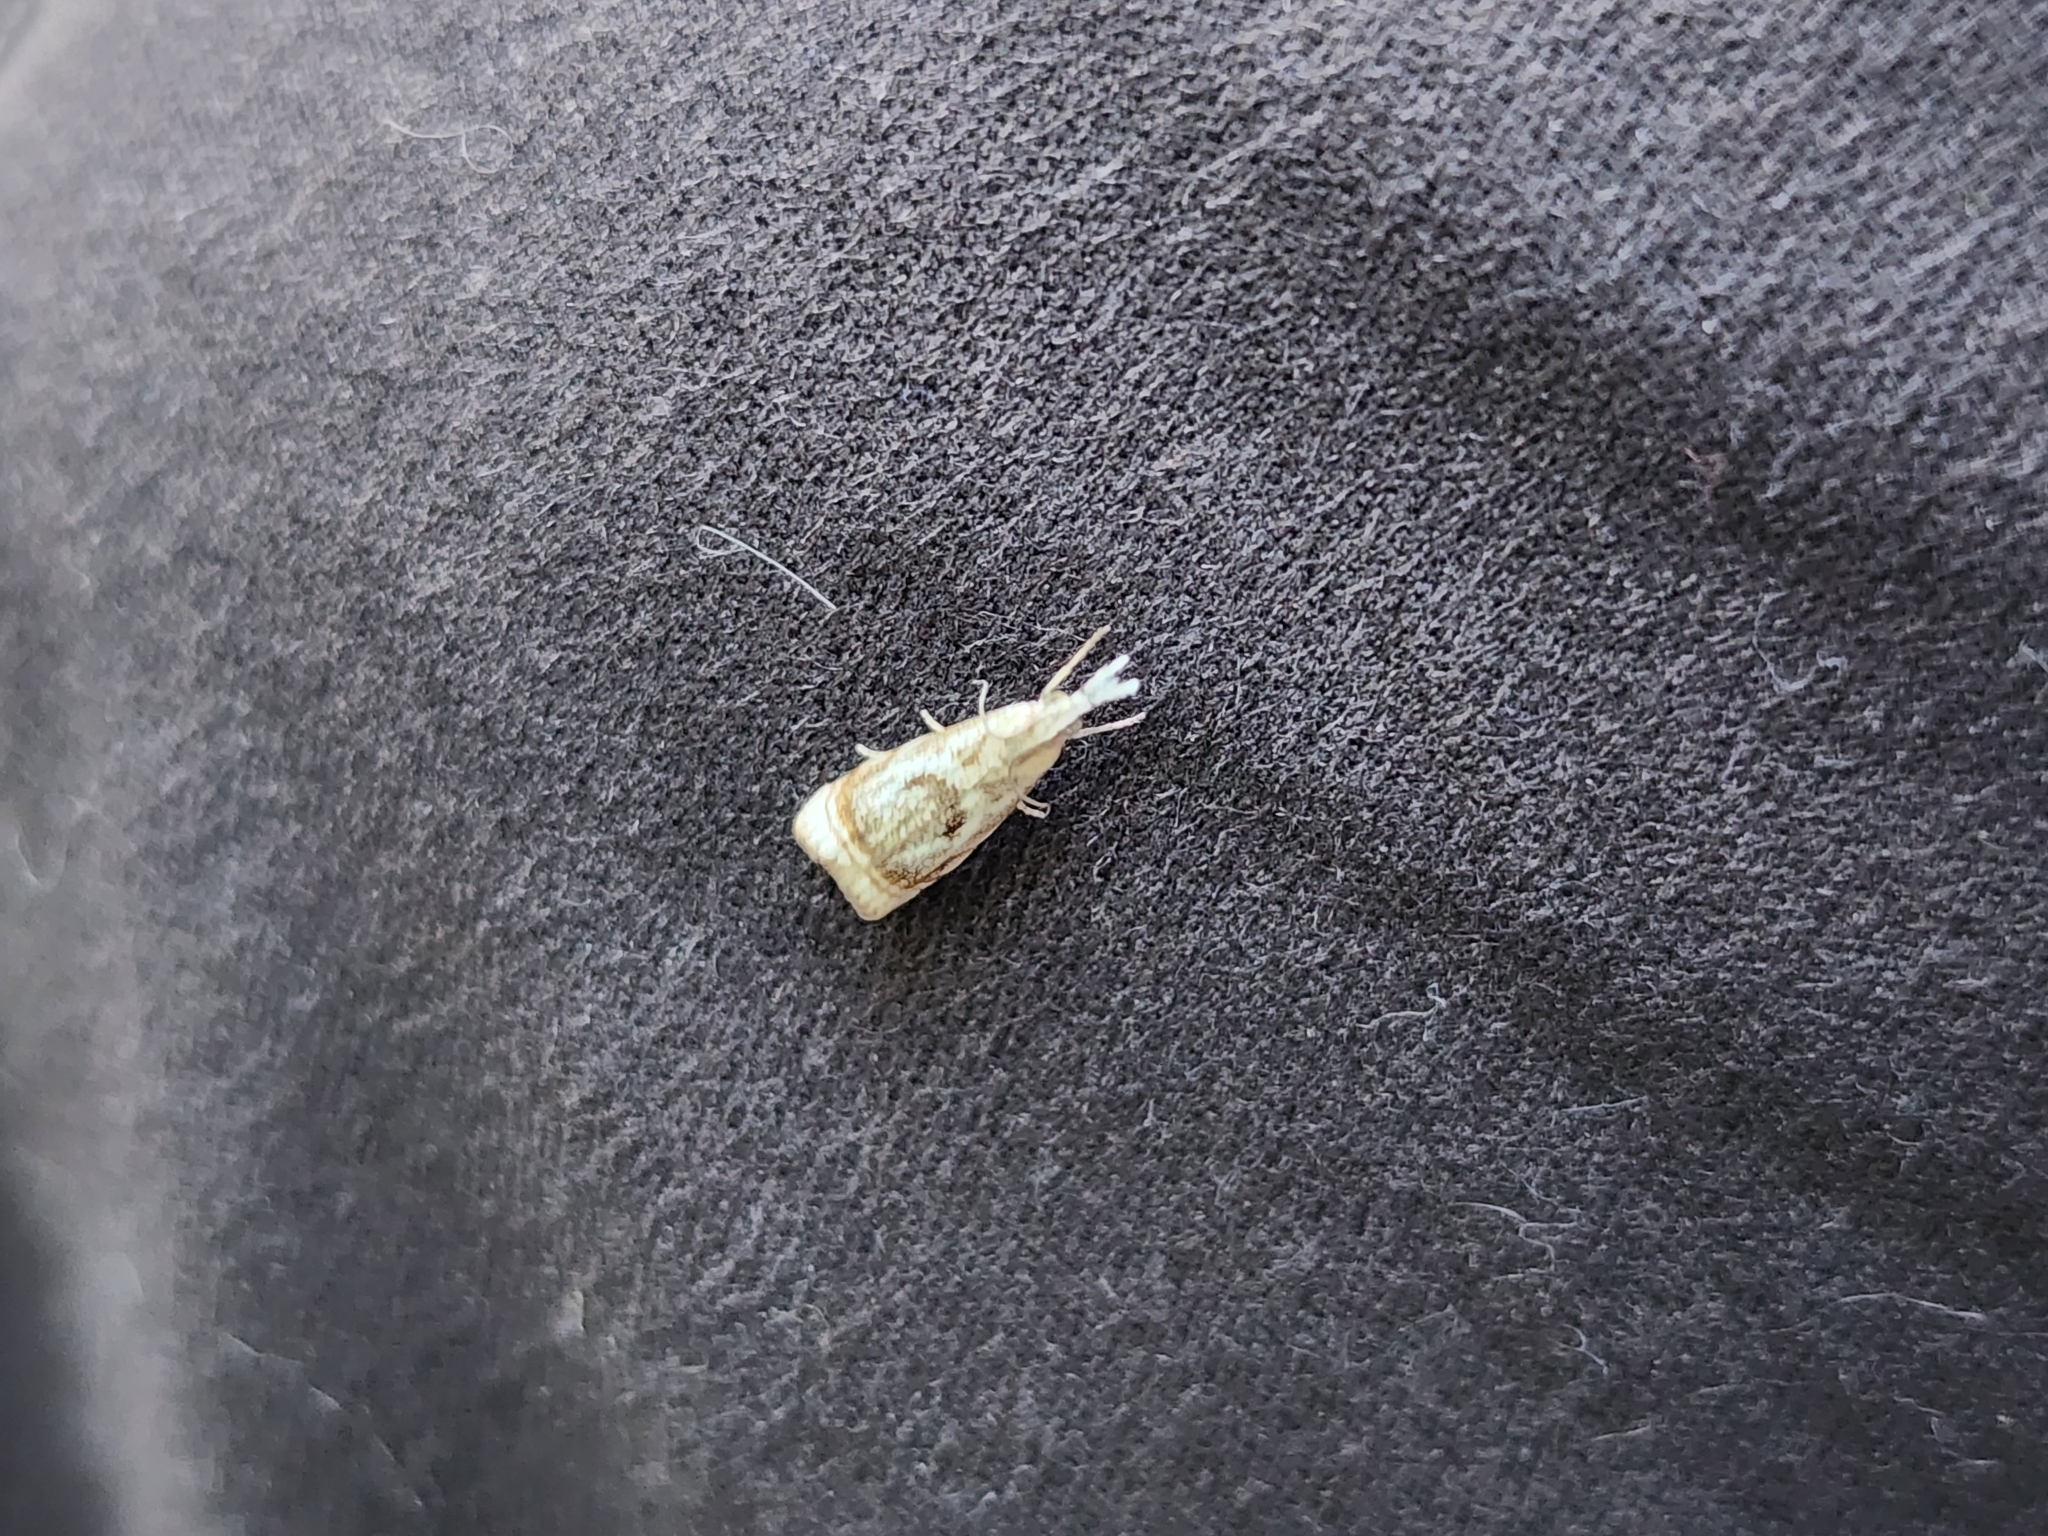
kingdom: Animalia
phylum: Arthropoda
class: Insecta
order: Lepidoptera
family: Crambidae
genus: Microcrambus
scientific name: Microcrambus elegans
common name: Elegant grass-veneer
